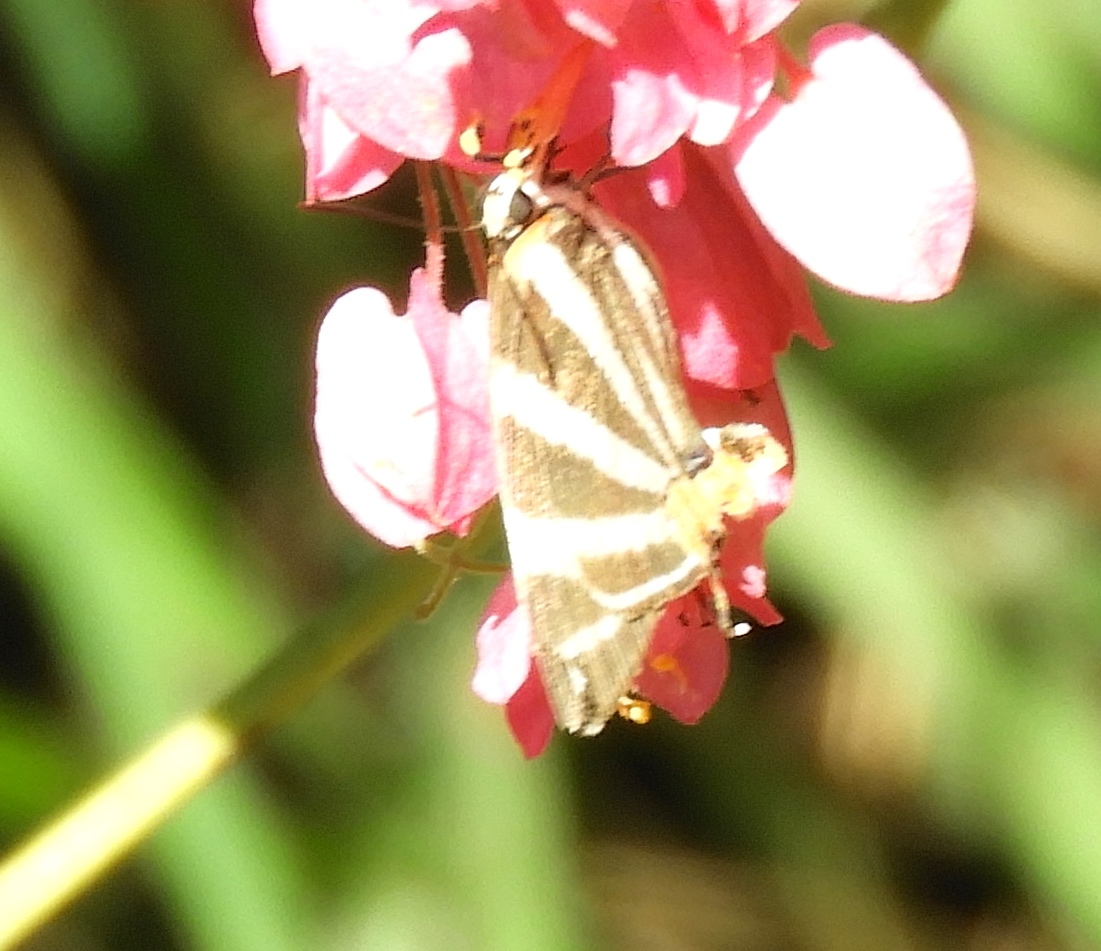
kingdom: Animalia
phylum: Arthropoda
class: Insecta
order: Lepidoptera
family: Lycaenidae
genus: Thecla
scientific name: Thecla bathildis
